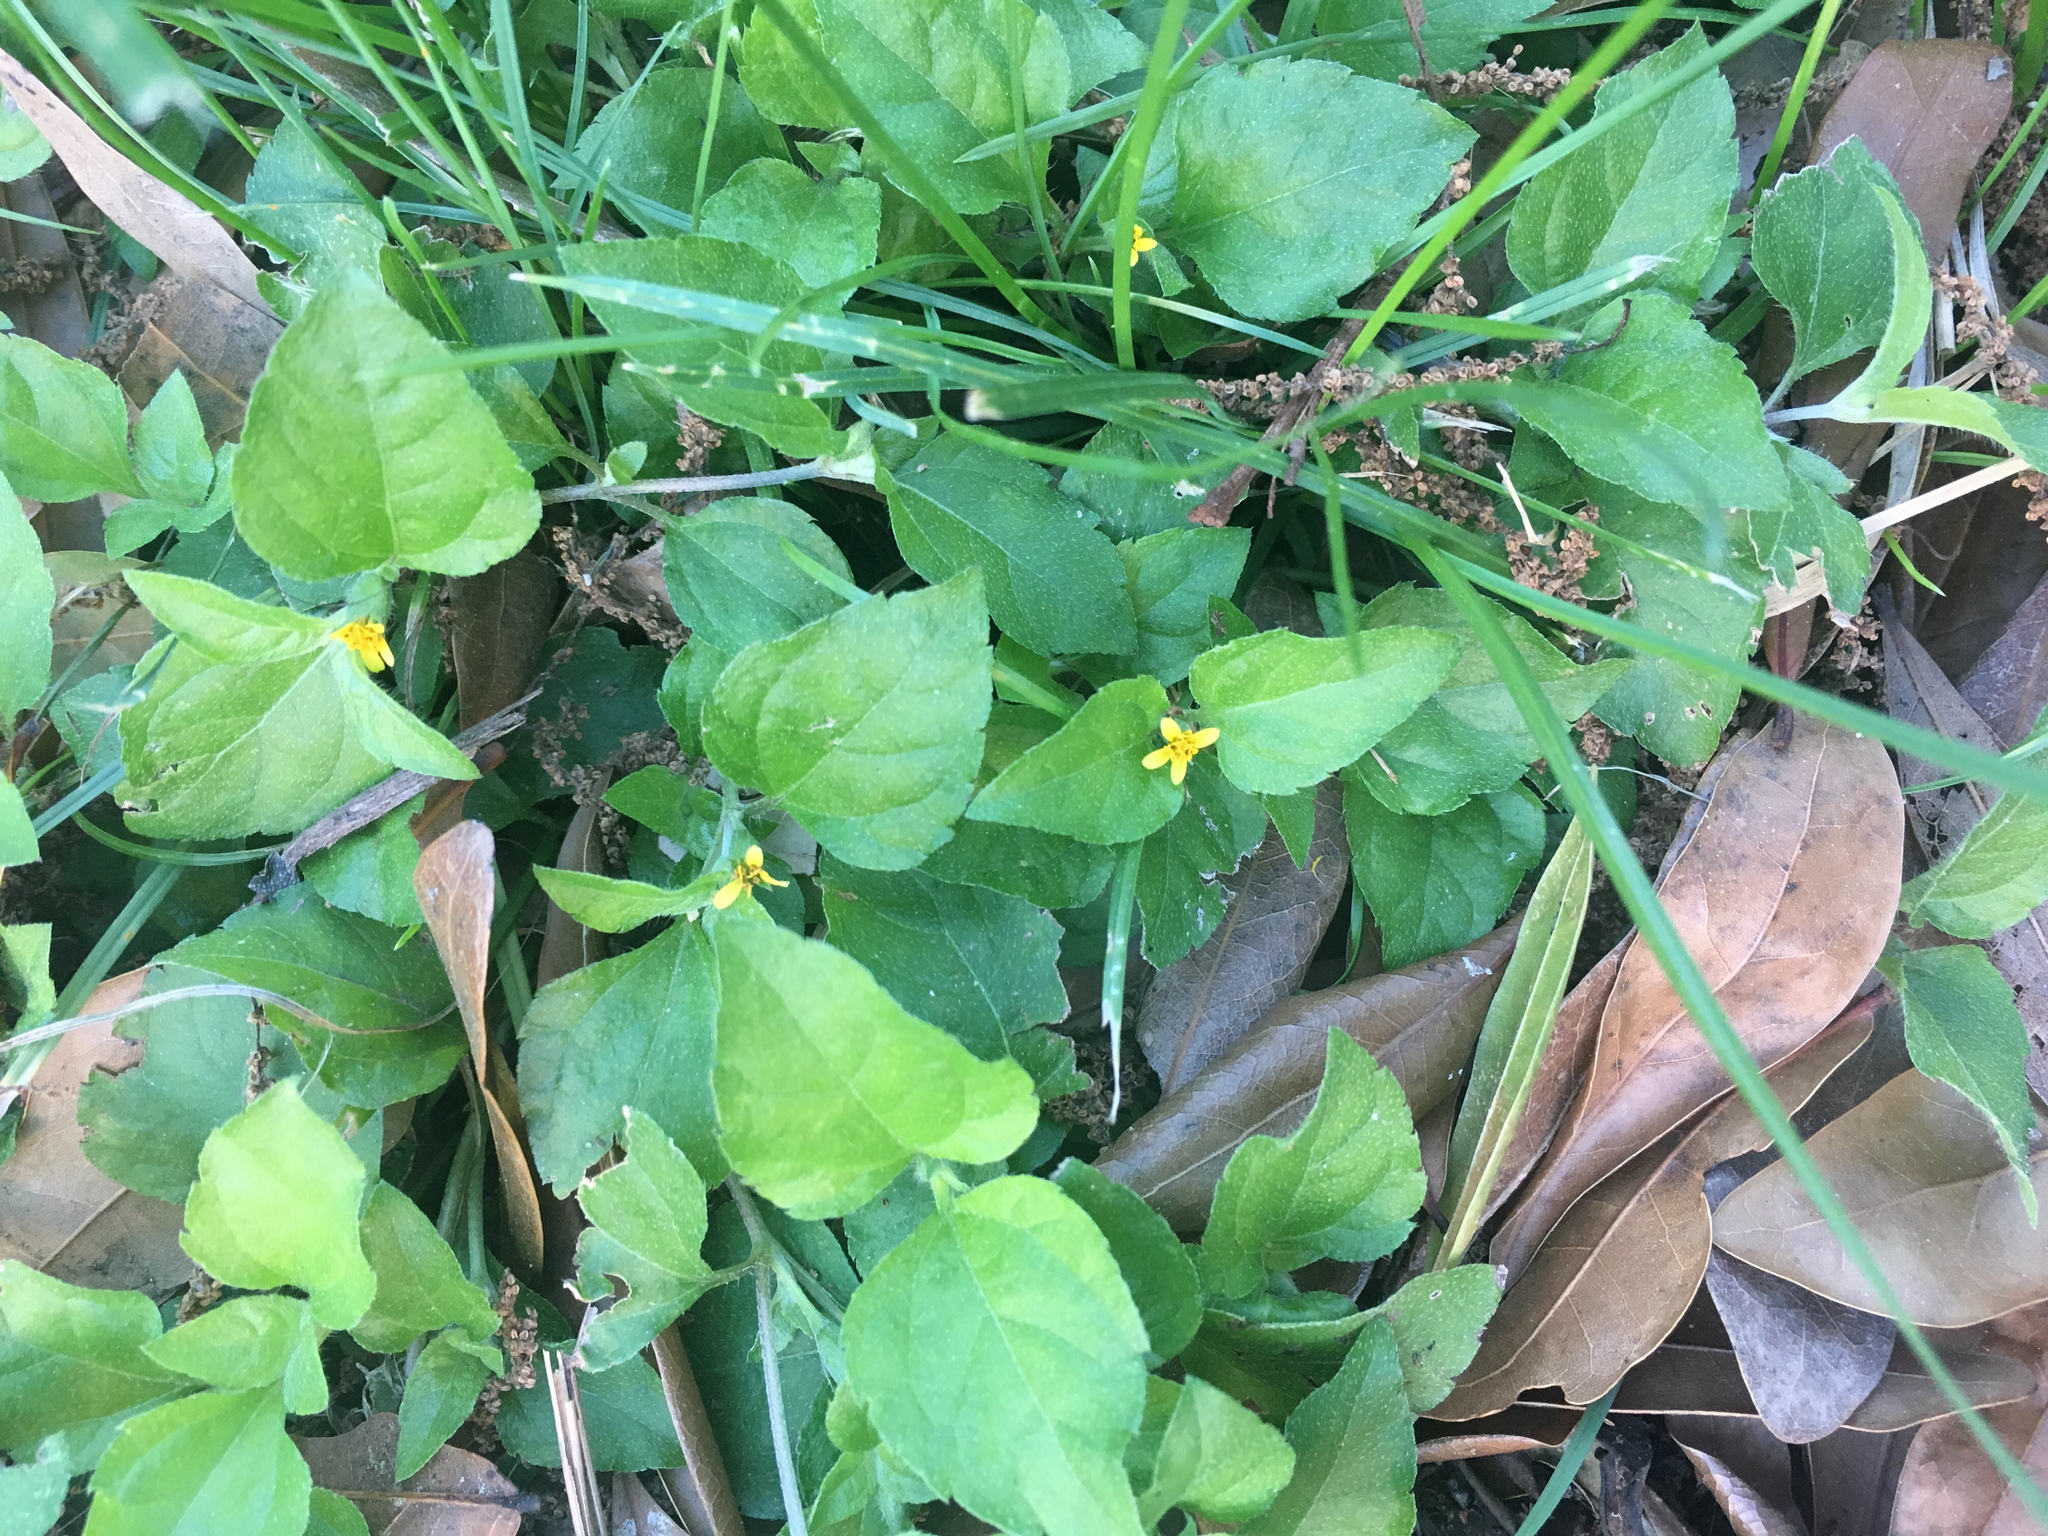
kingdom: Plantae
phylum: Tracheophyta
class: Magnoliopsida
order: Asterales
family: Asteraceae
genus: Calyptocarpus
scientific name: Calyptocarpus vialis
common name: Straggler daisy
